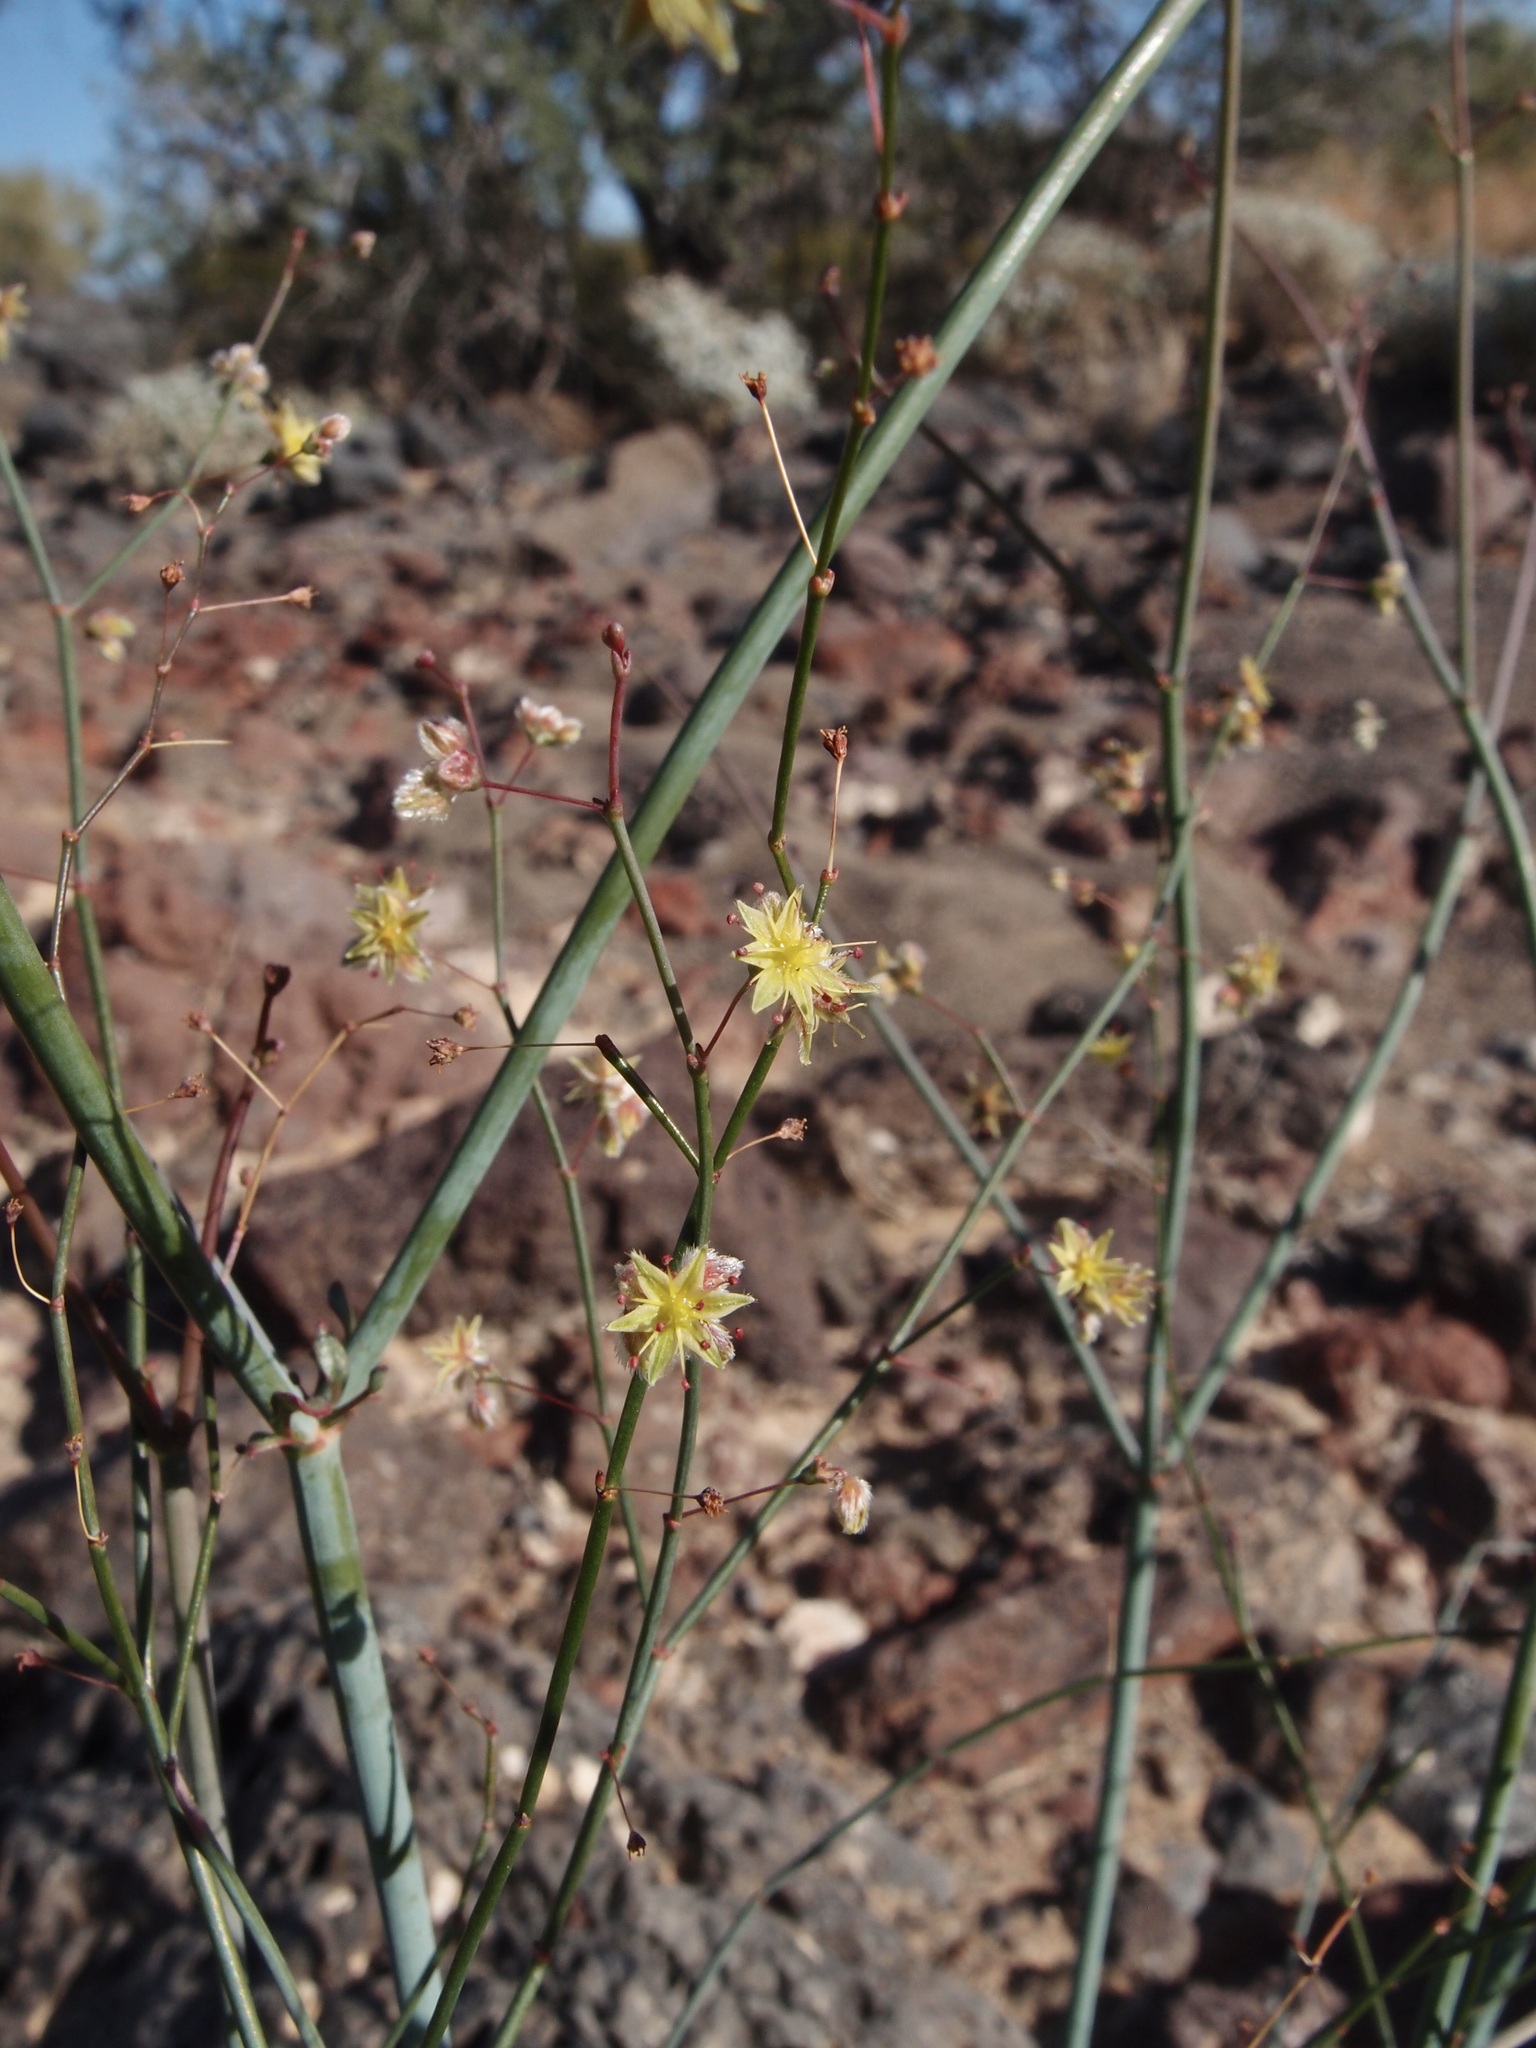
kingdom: Plantae
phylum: Tracheophyta
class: Magnoliopsida
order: Caryophyllales
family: Polygonaceae
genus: Eriogonum
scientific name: Eriogonum inflatum
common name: Desert trumpet
